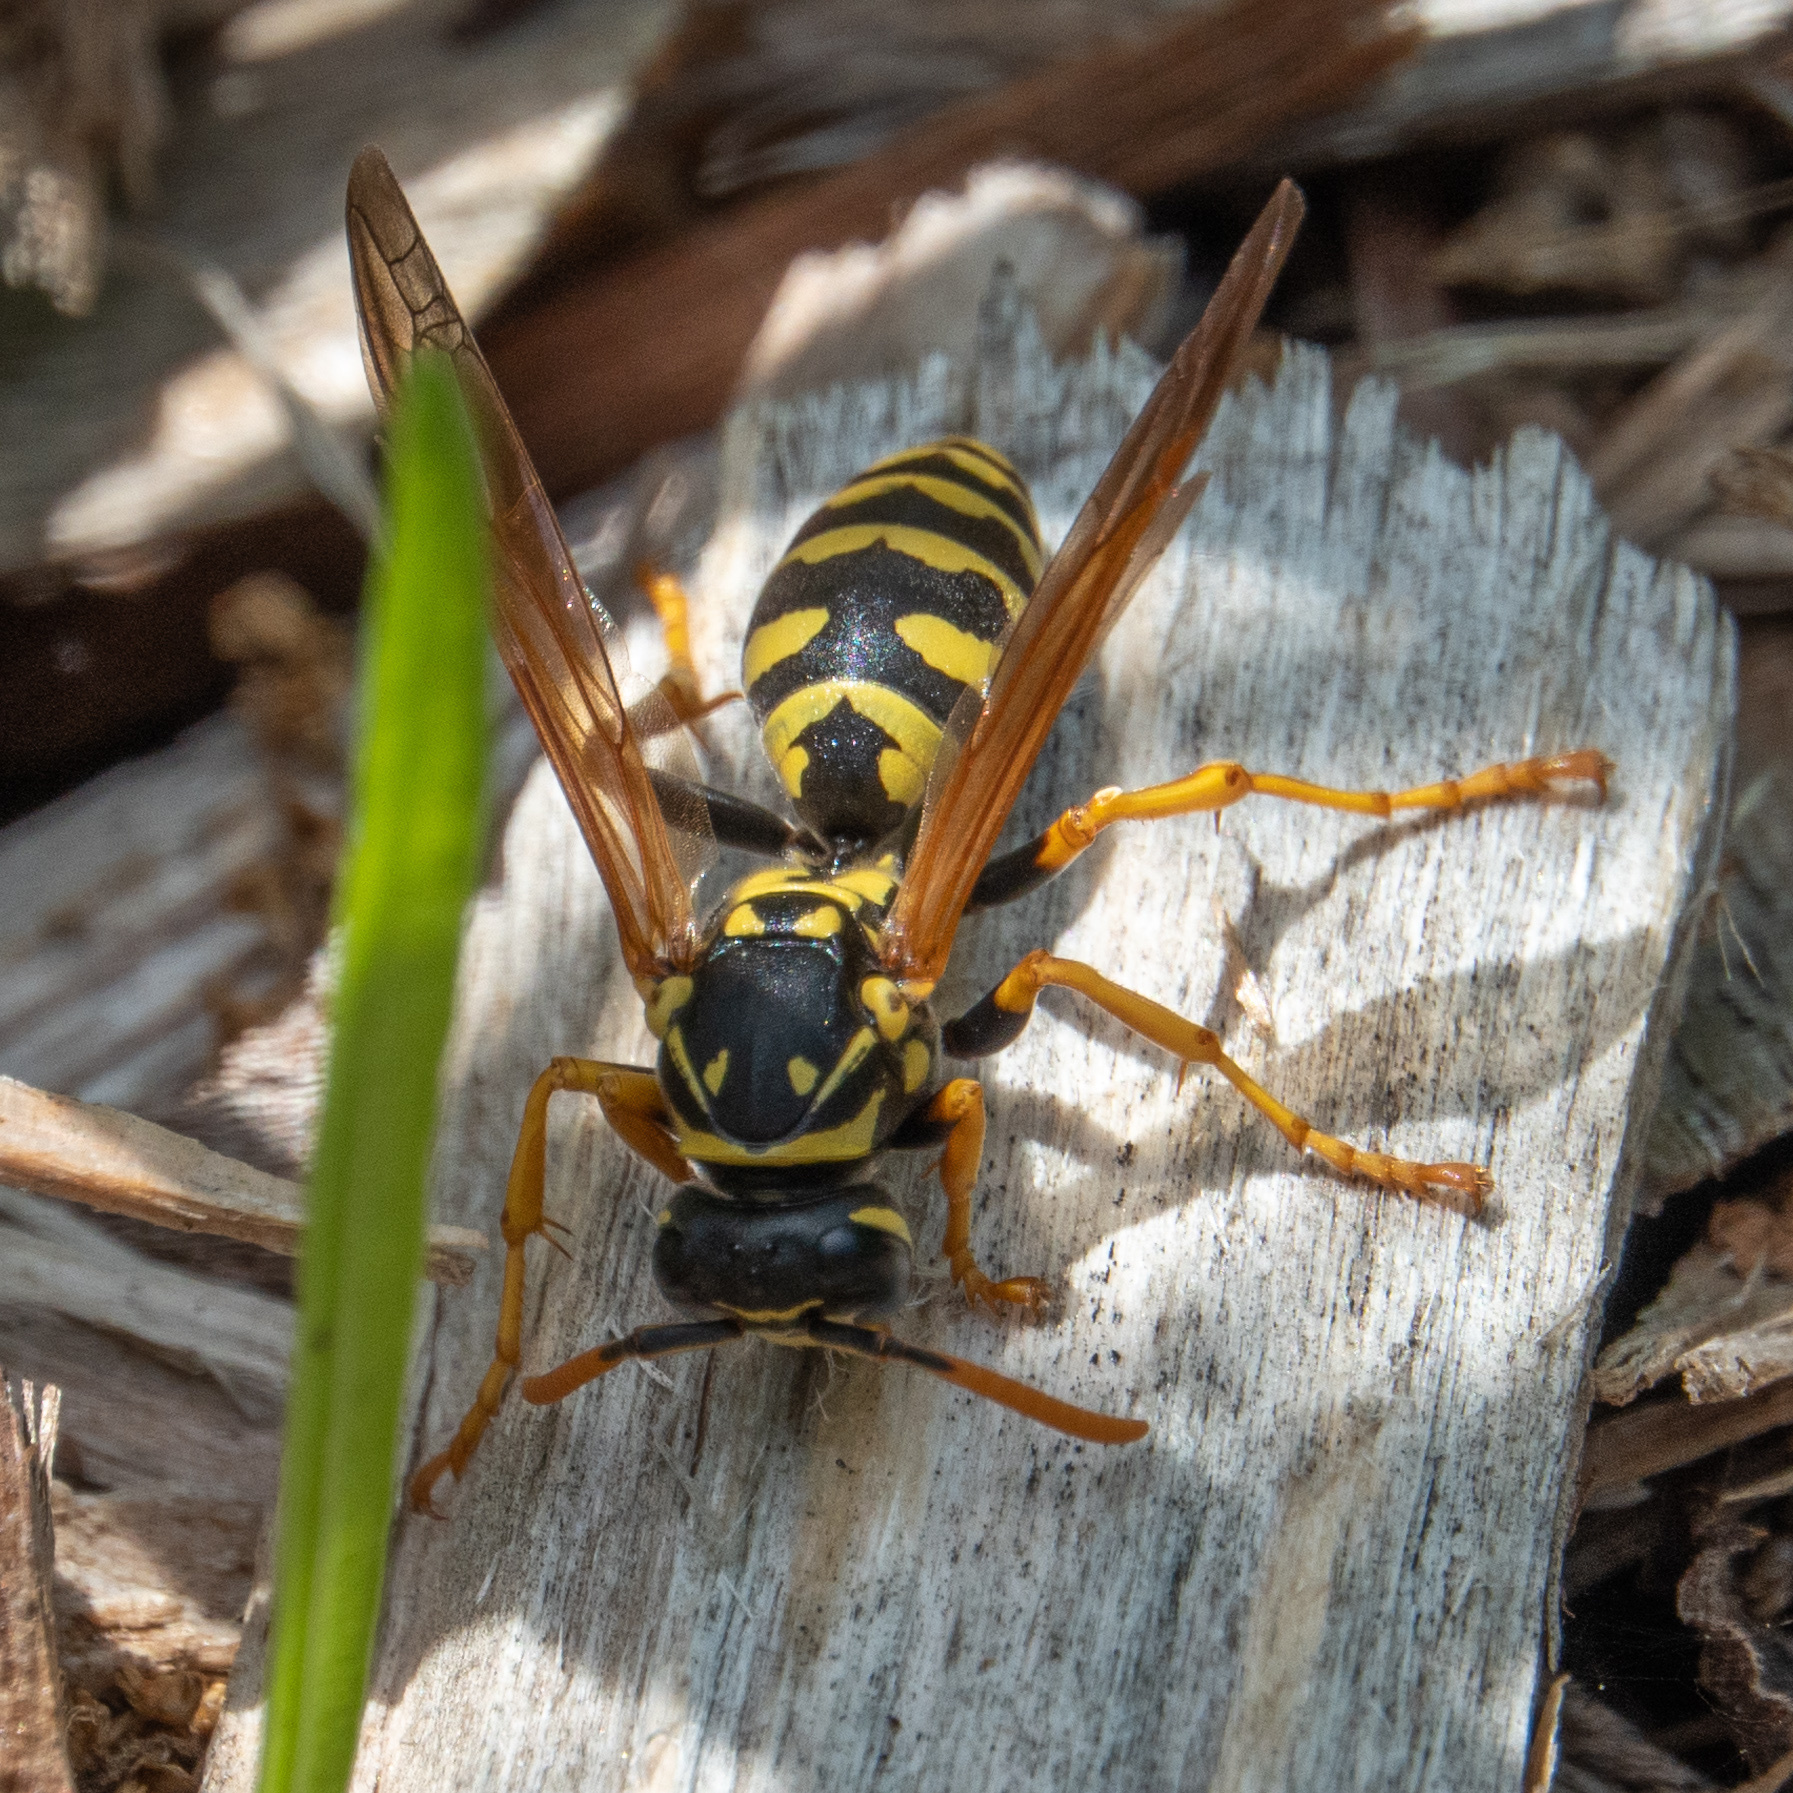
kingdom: Animalia
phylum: Arthropoda
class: Insecta
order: Hymenoptera
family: Eumenidae
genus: Polistes
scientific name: Polistes dominula
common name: Paper wasp
